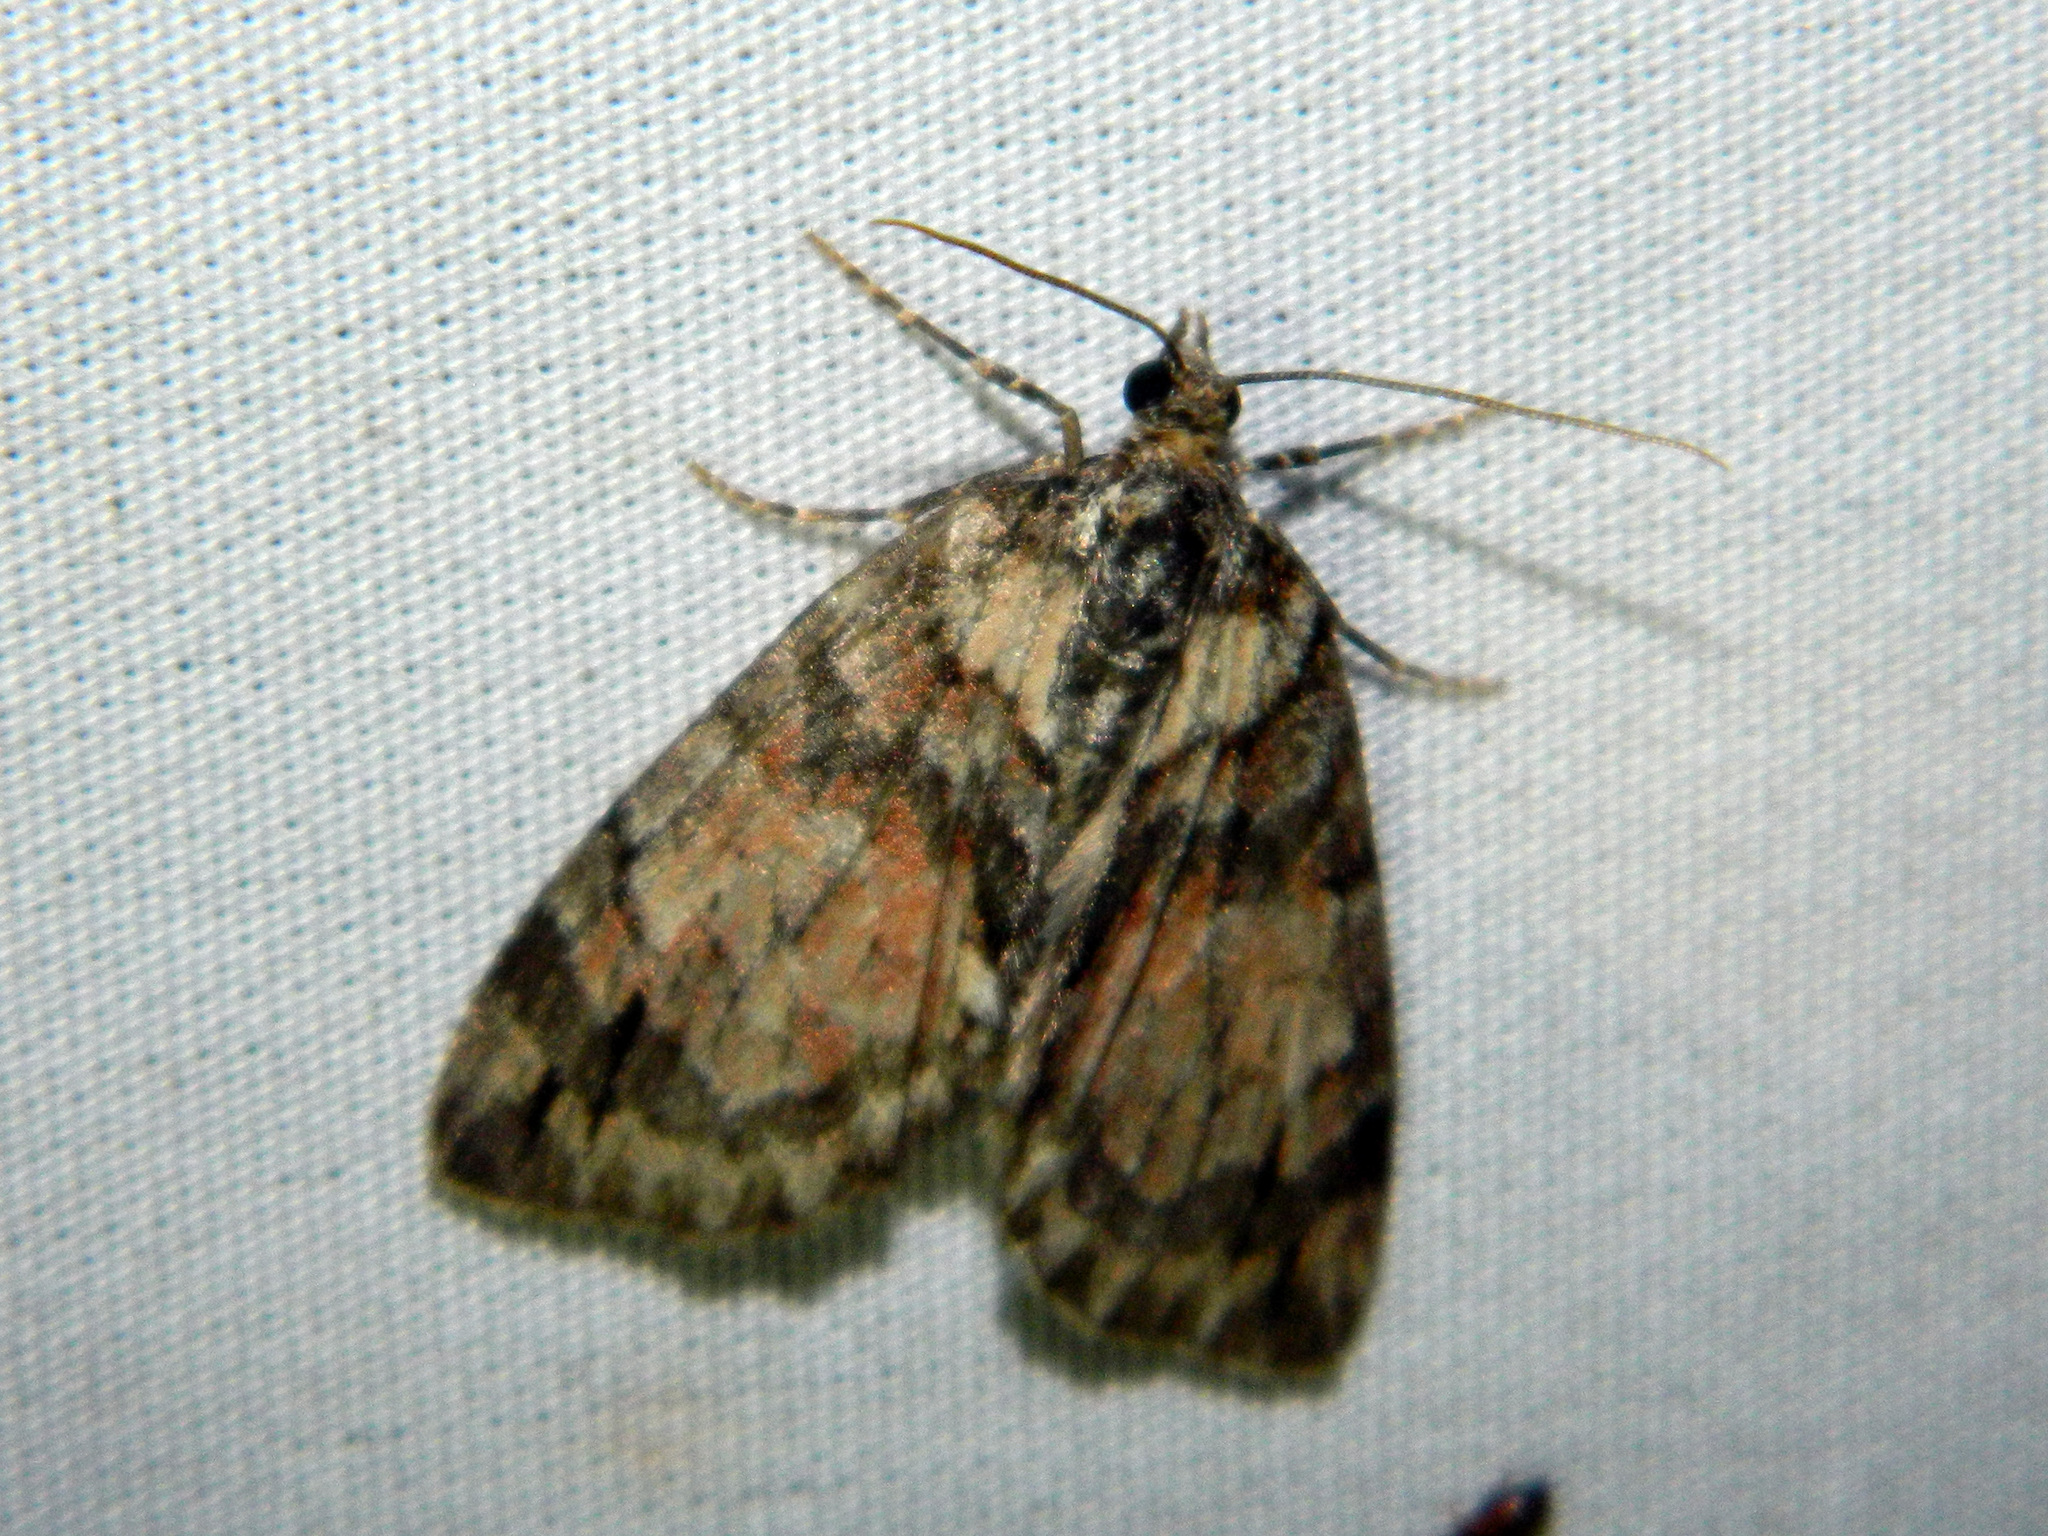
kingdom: Animalia
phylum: Arthropoda
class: Insecta
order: Lepidoptera
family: Geometridae
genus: Hydriomena
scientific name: Hydriomena perfracta
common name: Shattered hydriomena moth
